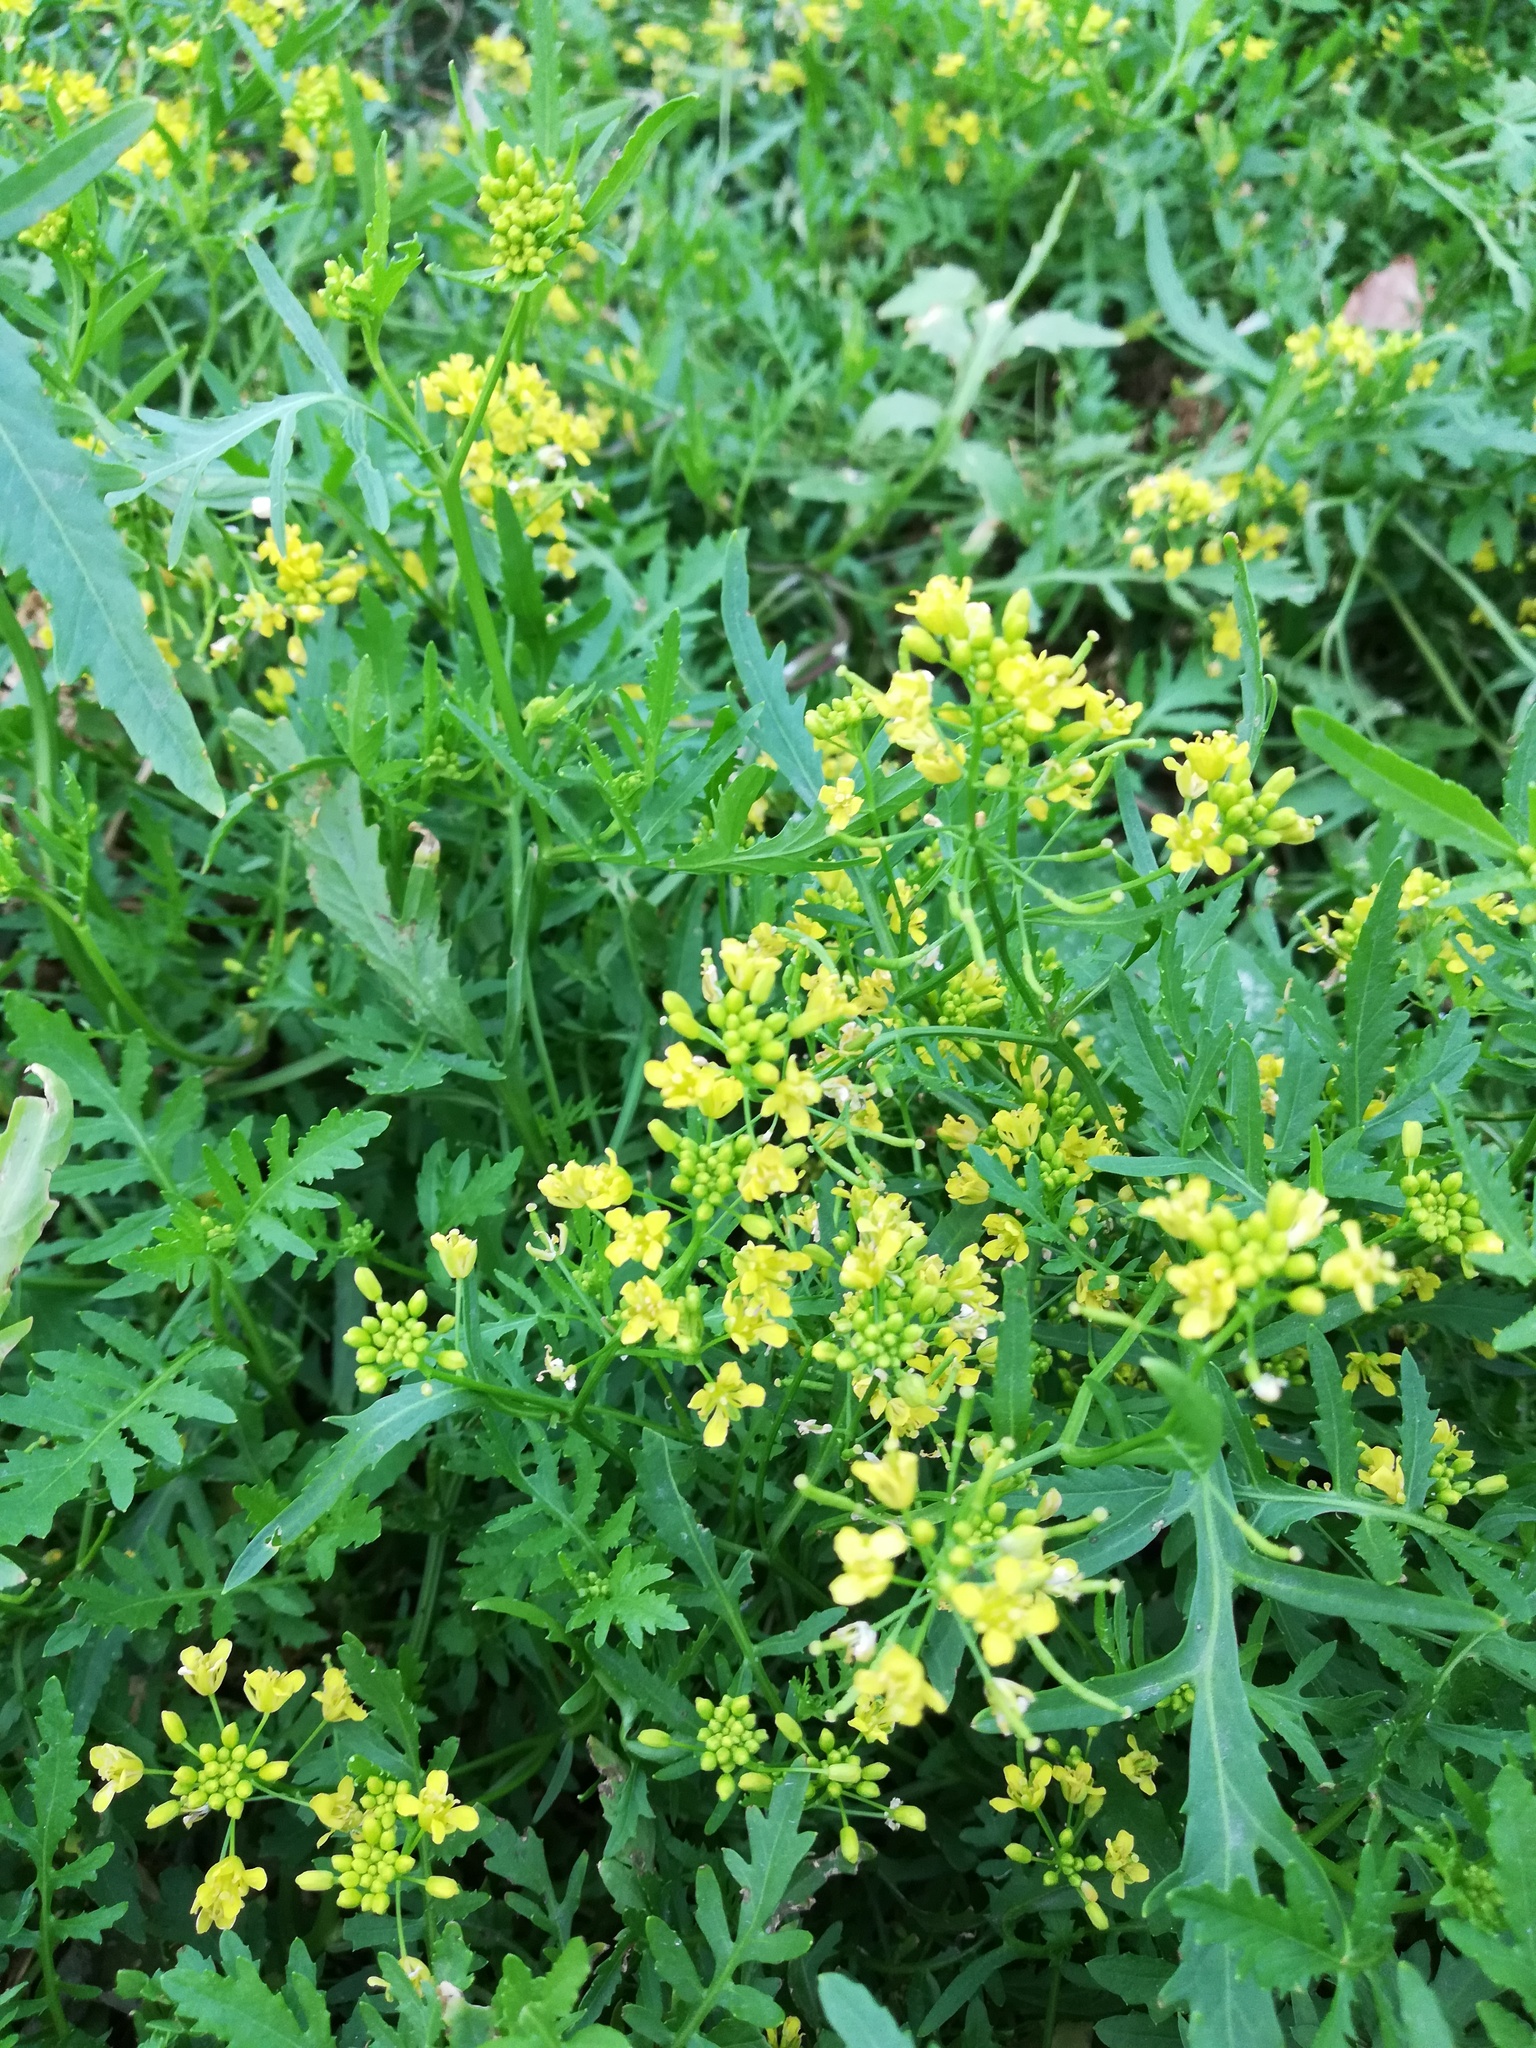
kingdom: Plantae
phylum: Tracheophyta
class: Magnoliopsida
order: Brassicales
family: Brassicaceae
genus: Rorippa
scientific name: Rorippa sylvestris
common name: Creeping yellowcress
